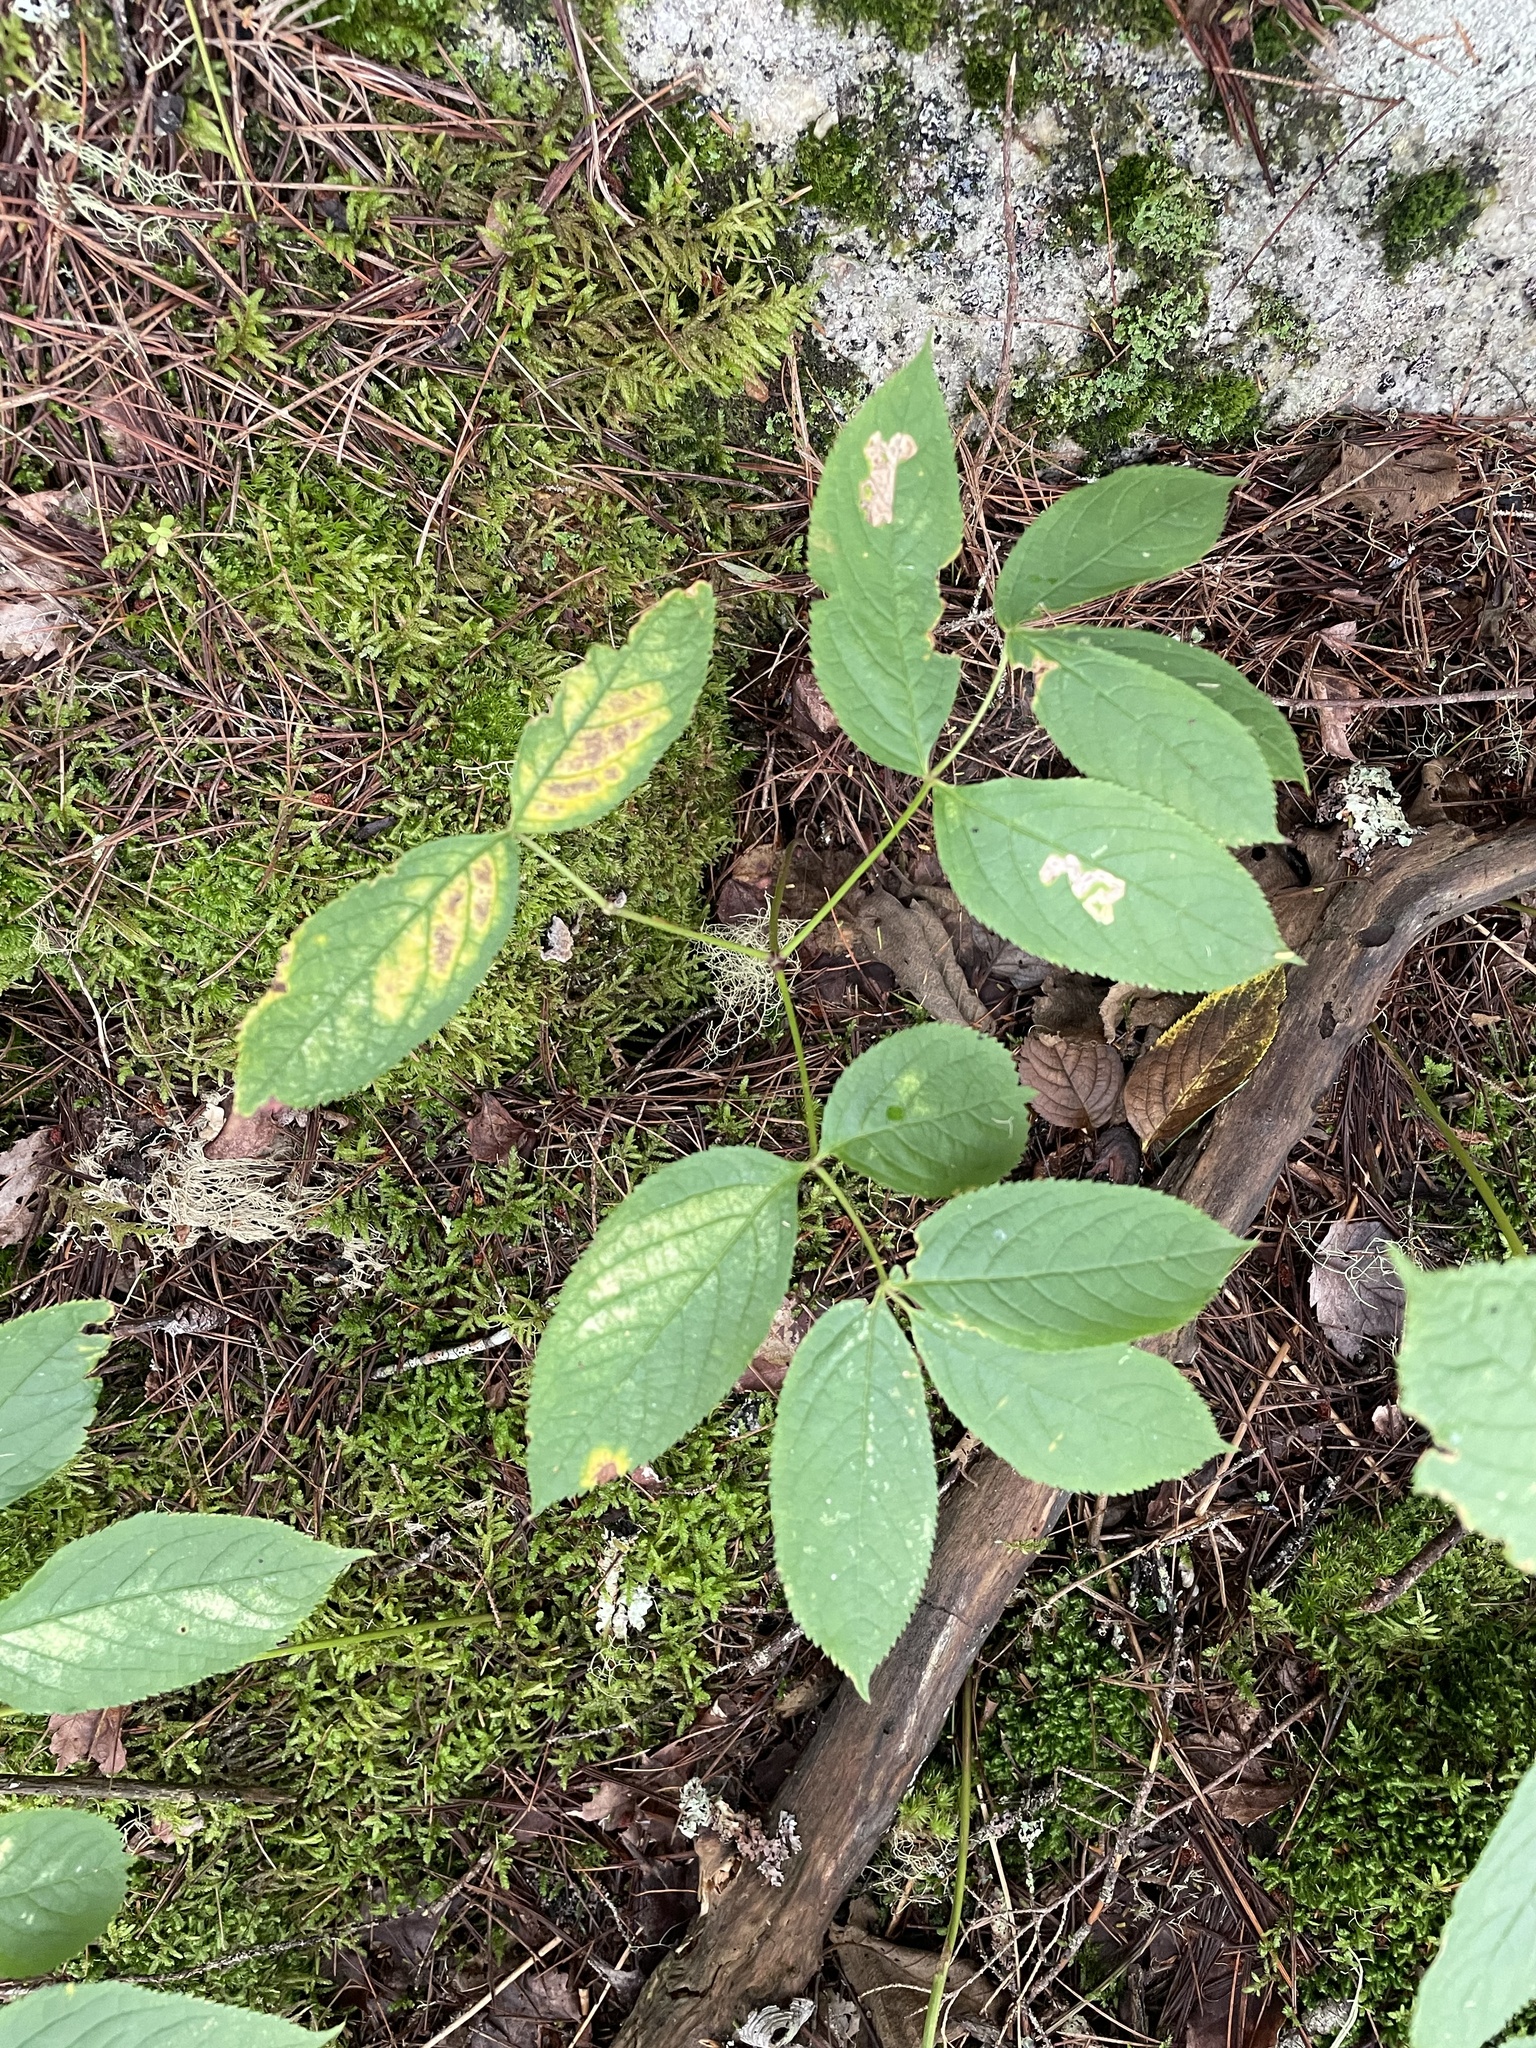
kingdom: Animalia
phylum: Arthropoda
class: Insecta
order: Diptera
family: Agromyzidae
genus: Phytomyza
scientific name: Phytomyza aralivora
